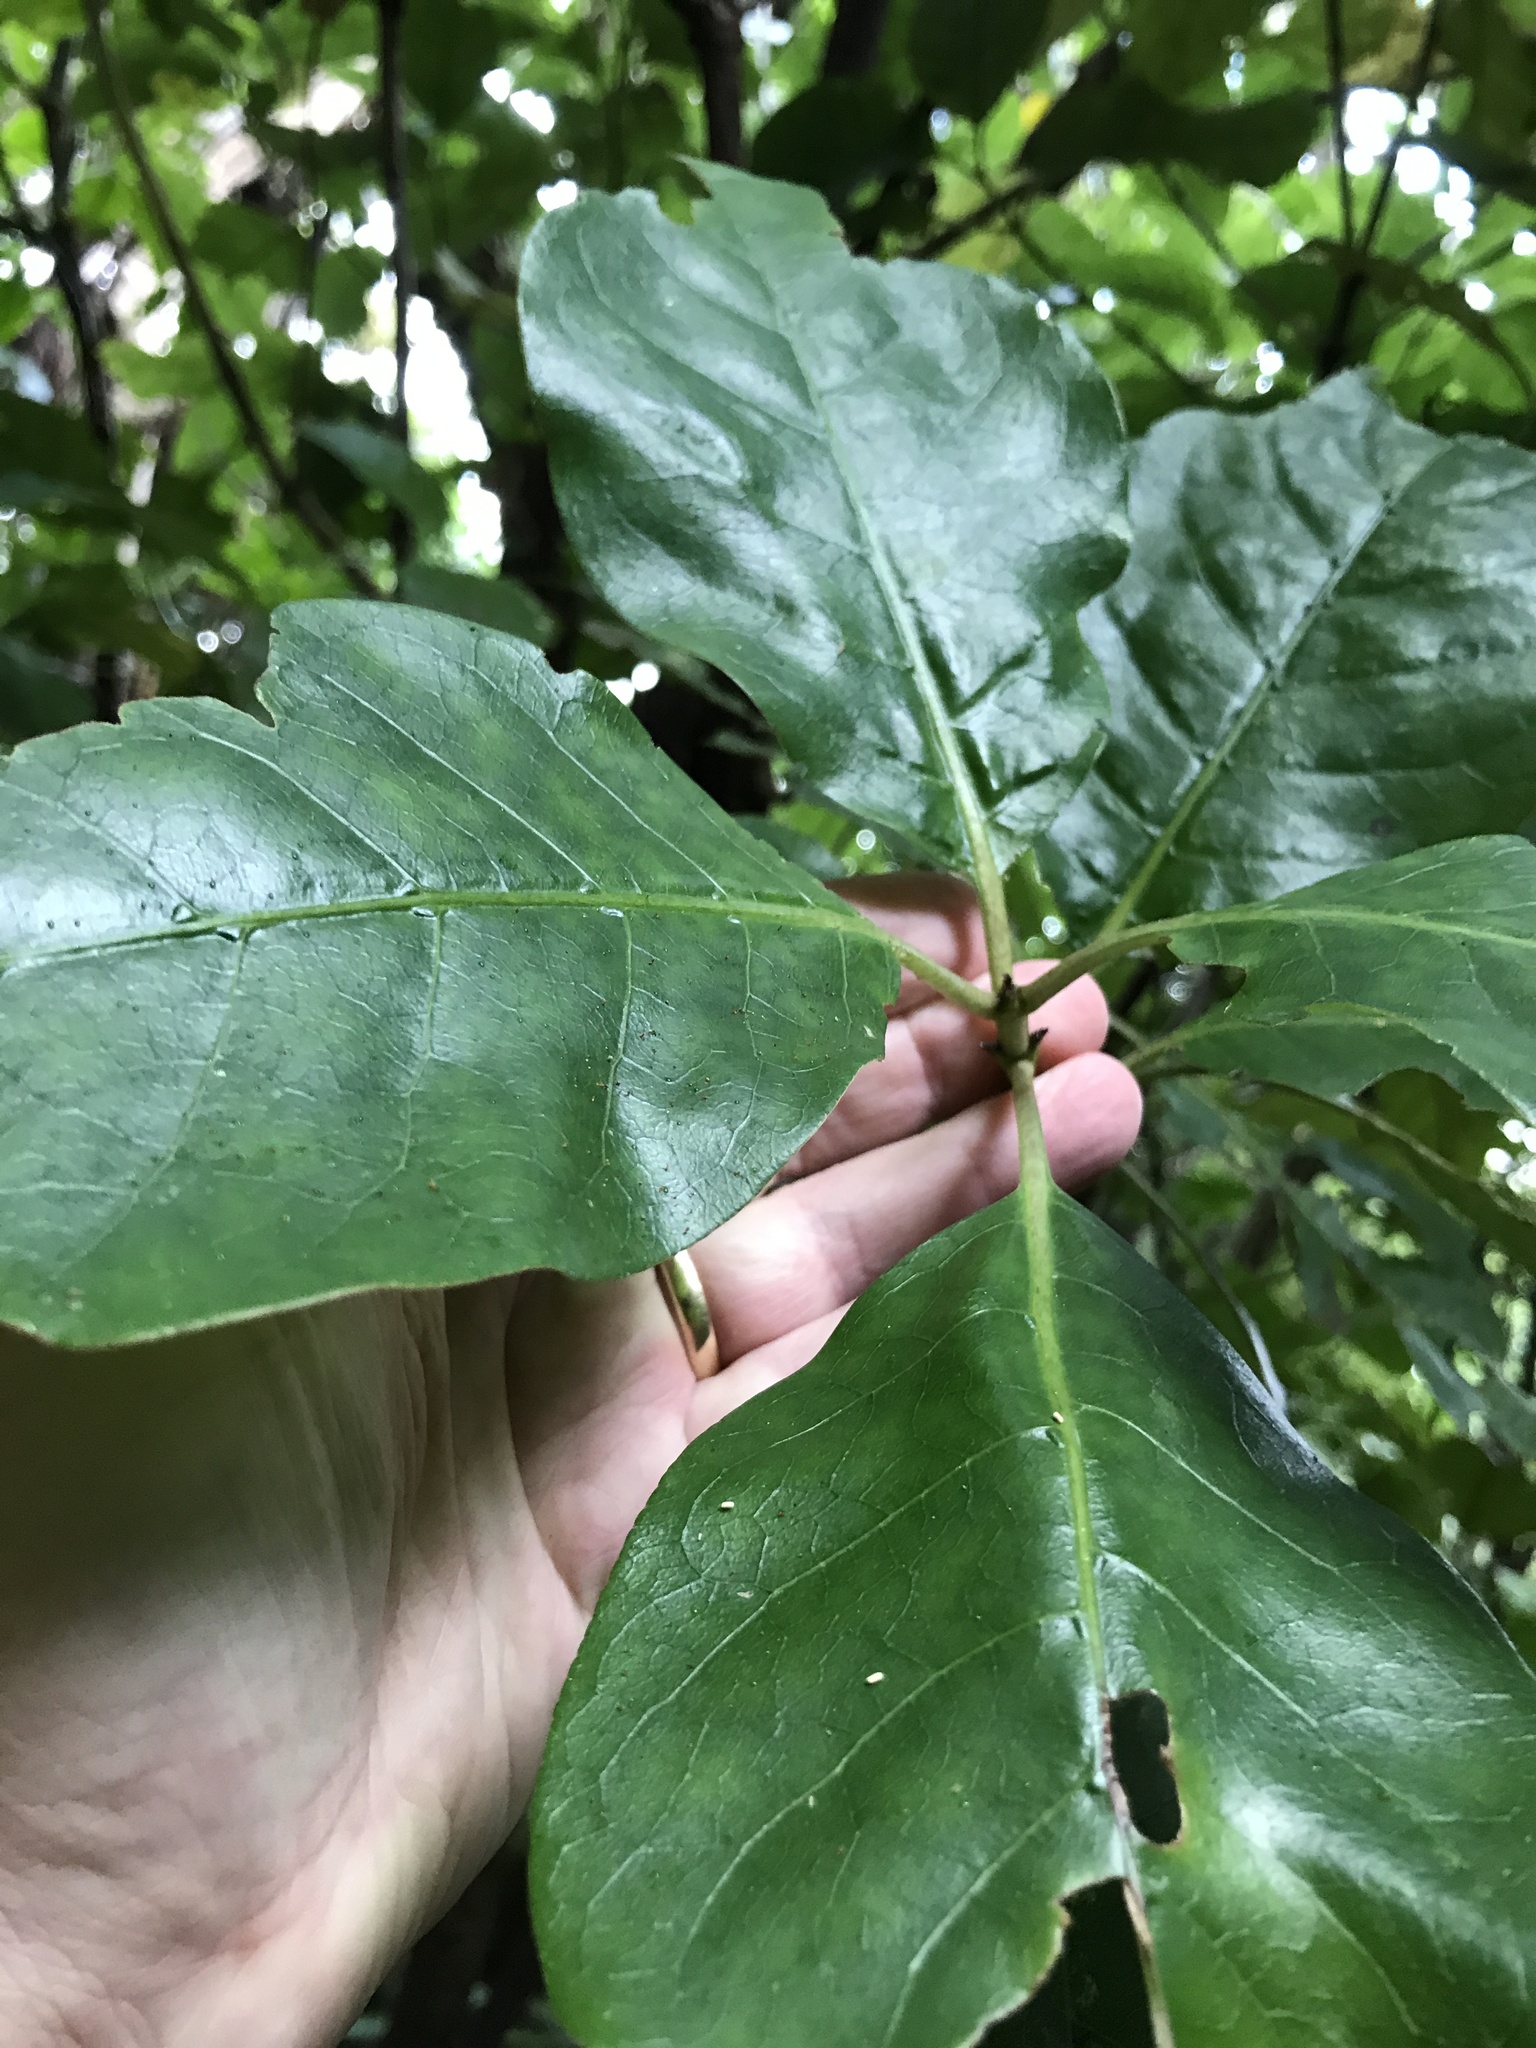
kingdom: Plantae
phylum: Tracheophyta
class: Magnoliopsida
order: Gentianales
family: Rubiaceae
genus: Coprosma
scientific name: Coprosma autumnalis
